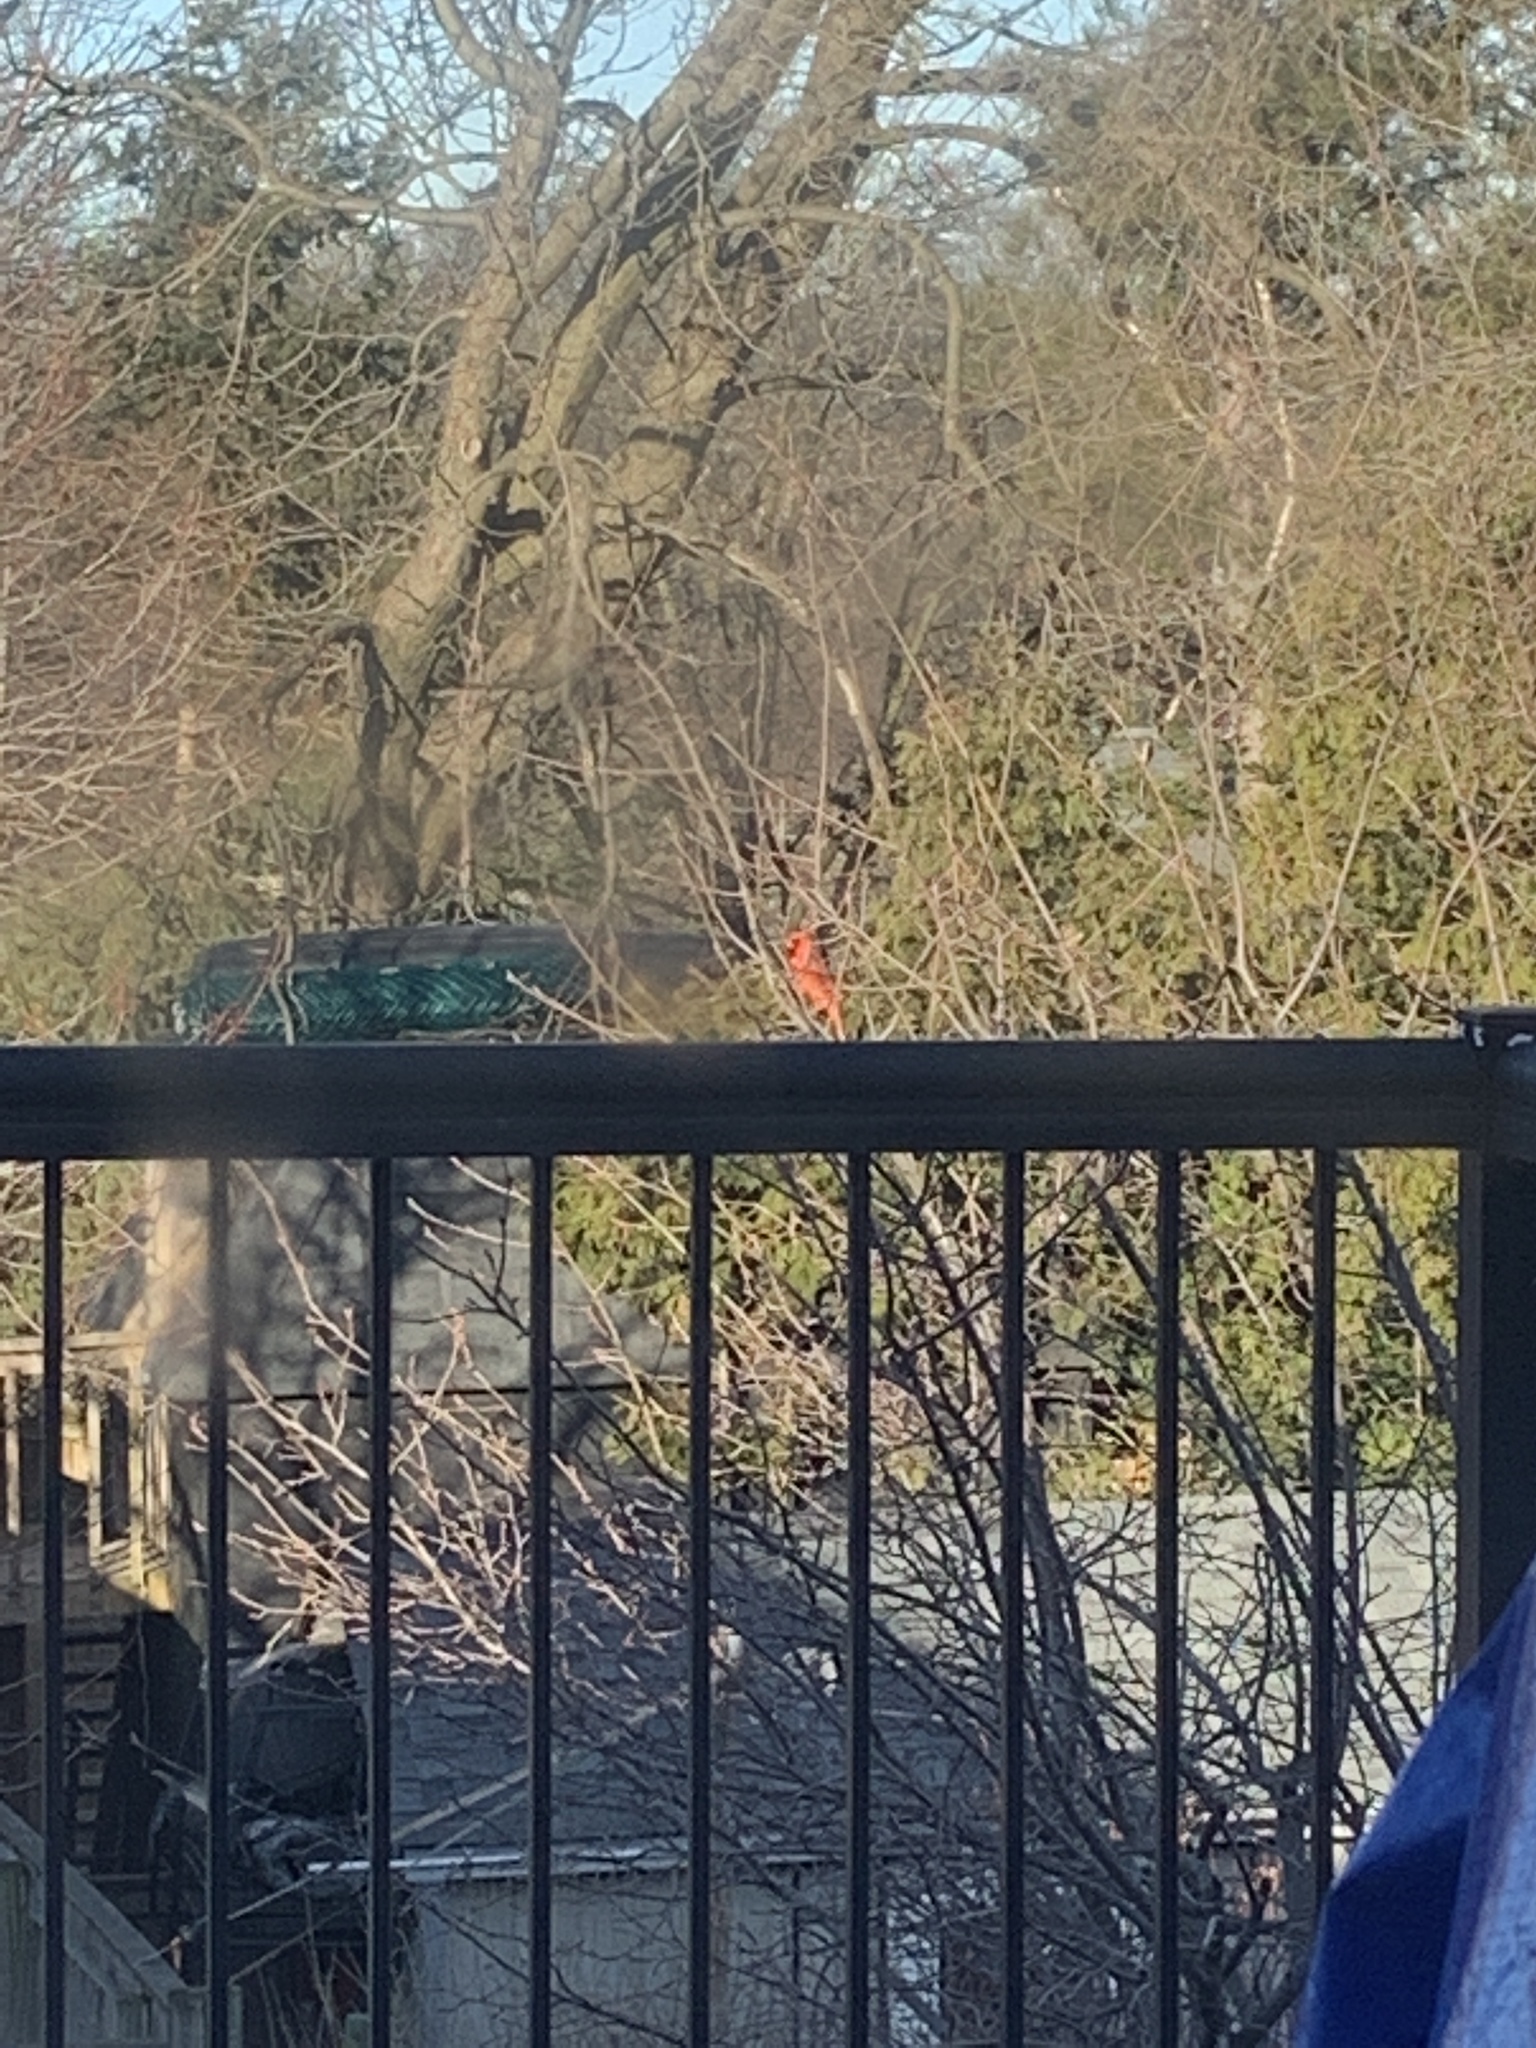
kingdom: Animalia
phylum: Chordata
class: Aves
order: Passeriformes
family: Cardinalidae
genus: Cardinalis
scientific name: Cardinalis cardinalis
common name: Northern cardinal
